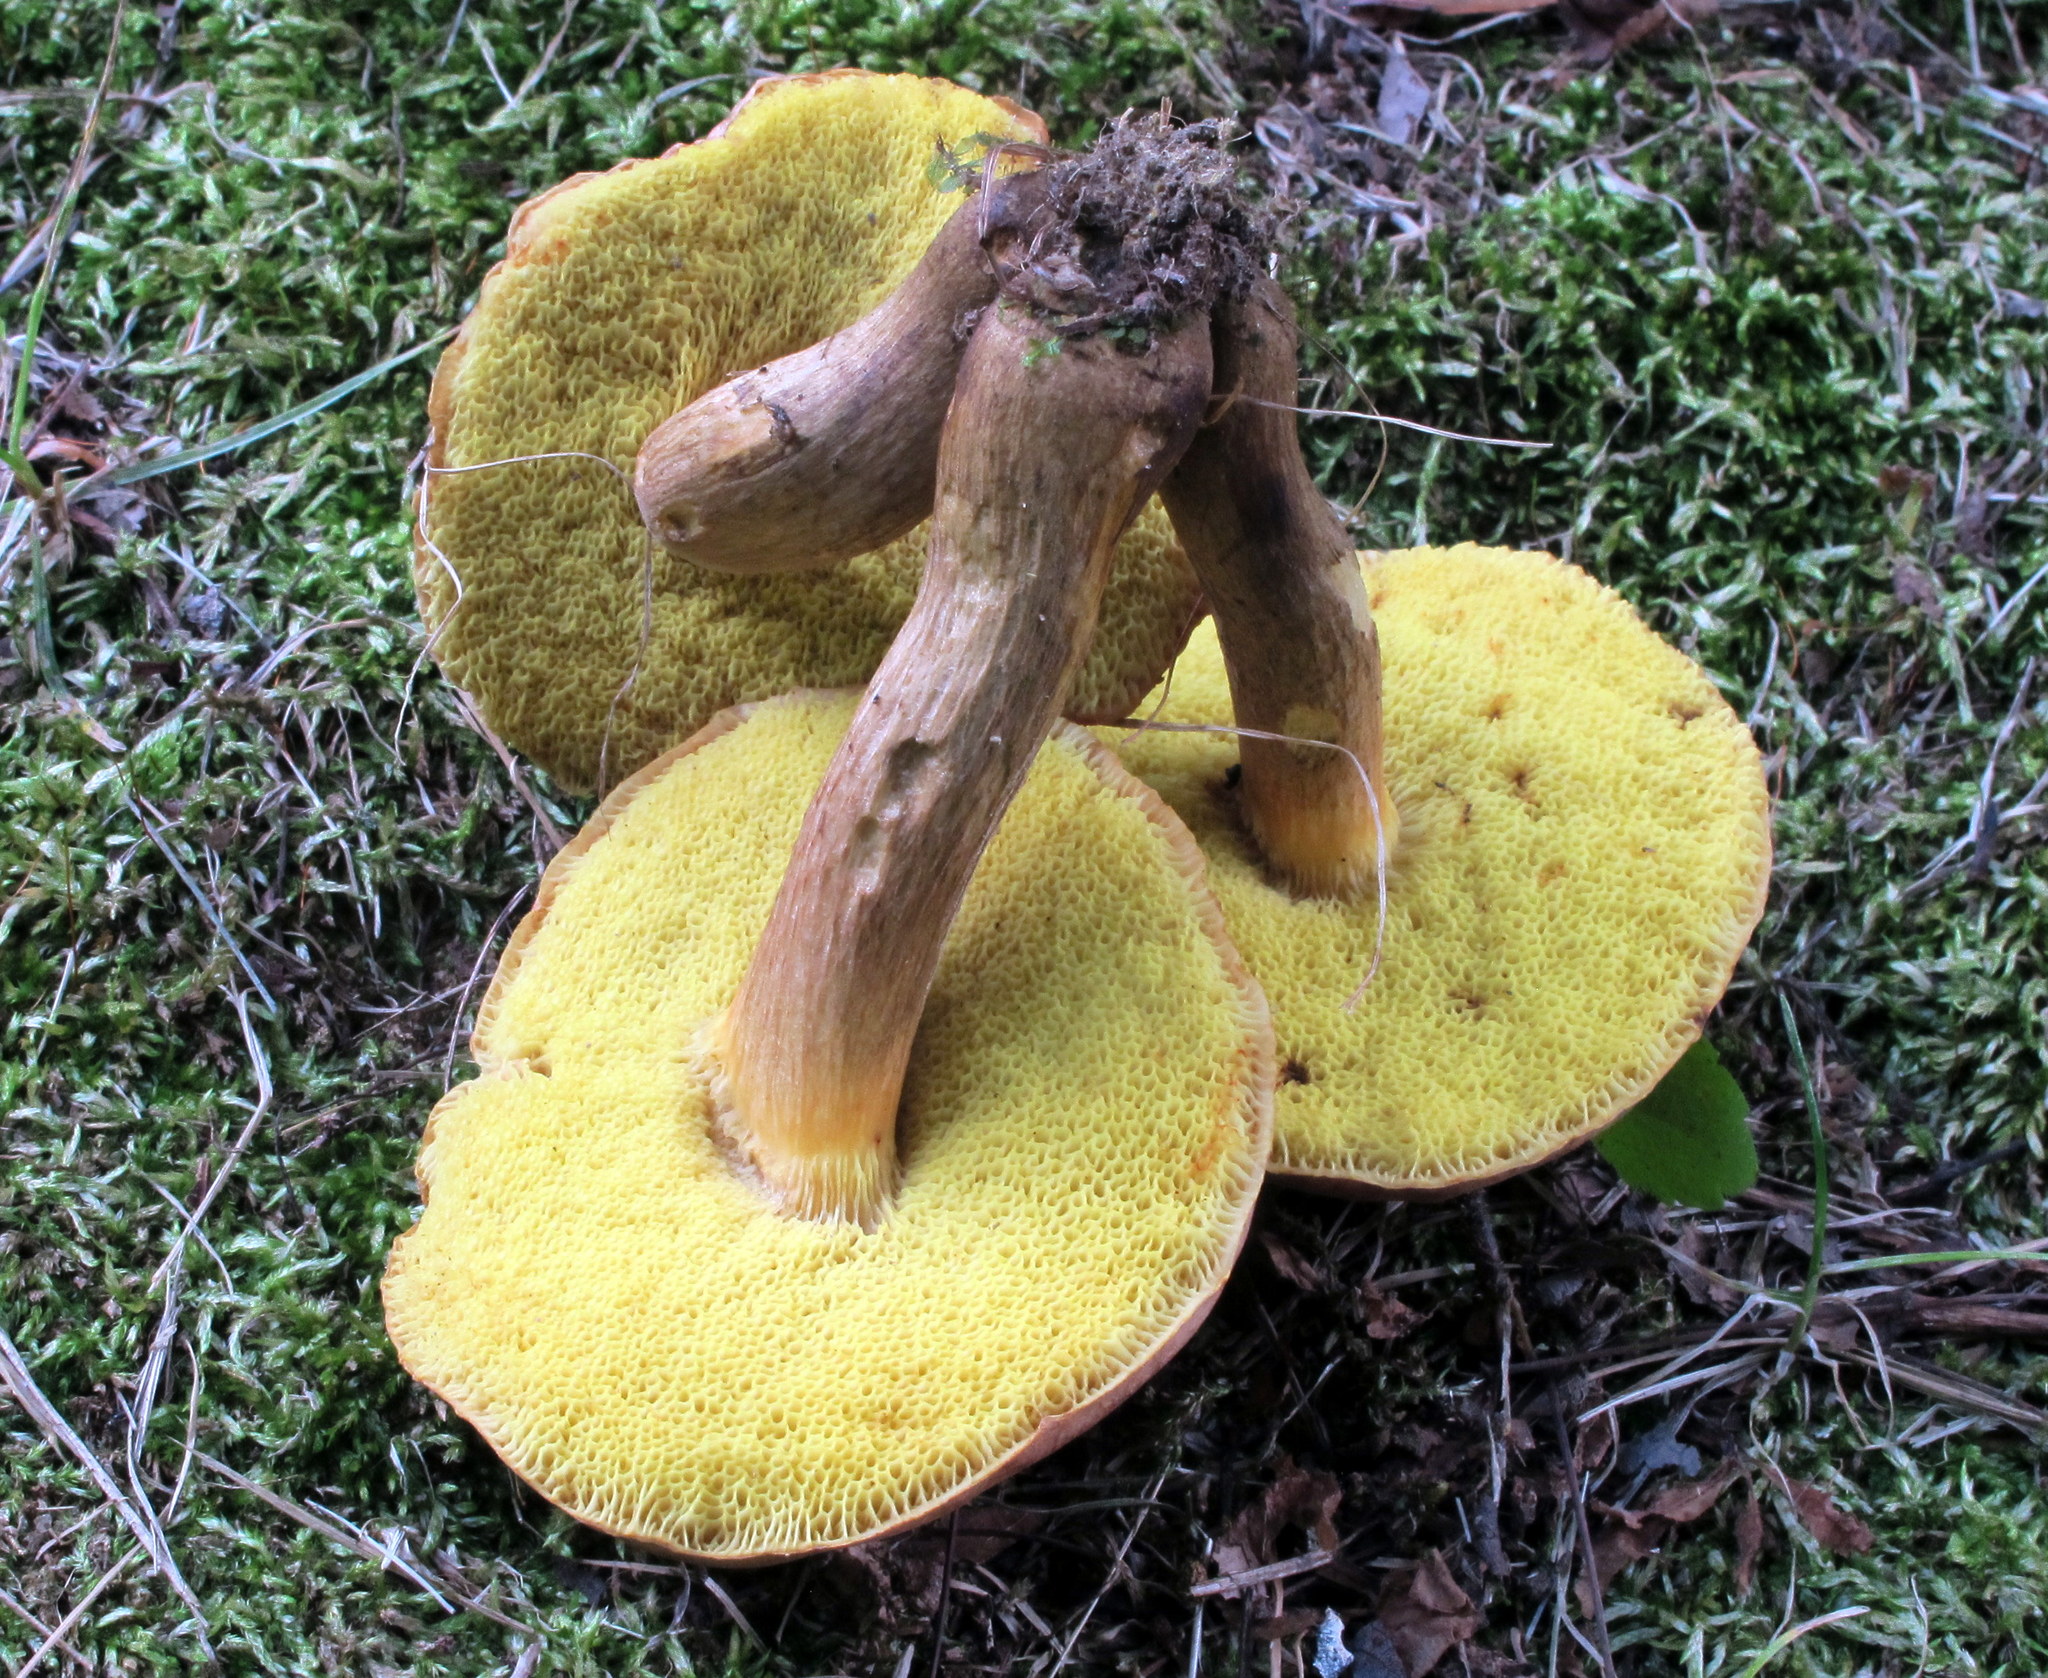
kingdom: Fungi
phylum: Basidiomycota
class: Agaricomycetes
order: Boletales
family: Boletaceae
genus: Aureoboletus
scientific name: Aureoboletus innixus
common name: Clustered brown bolete
